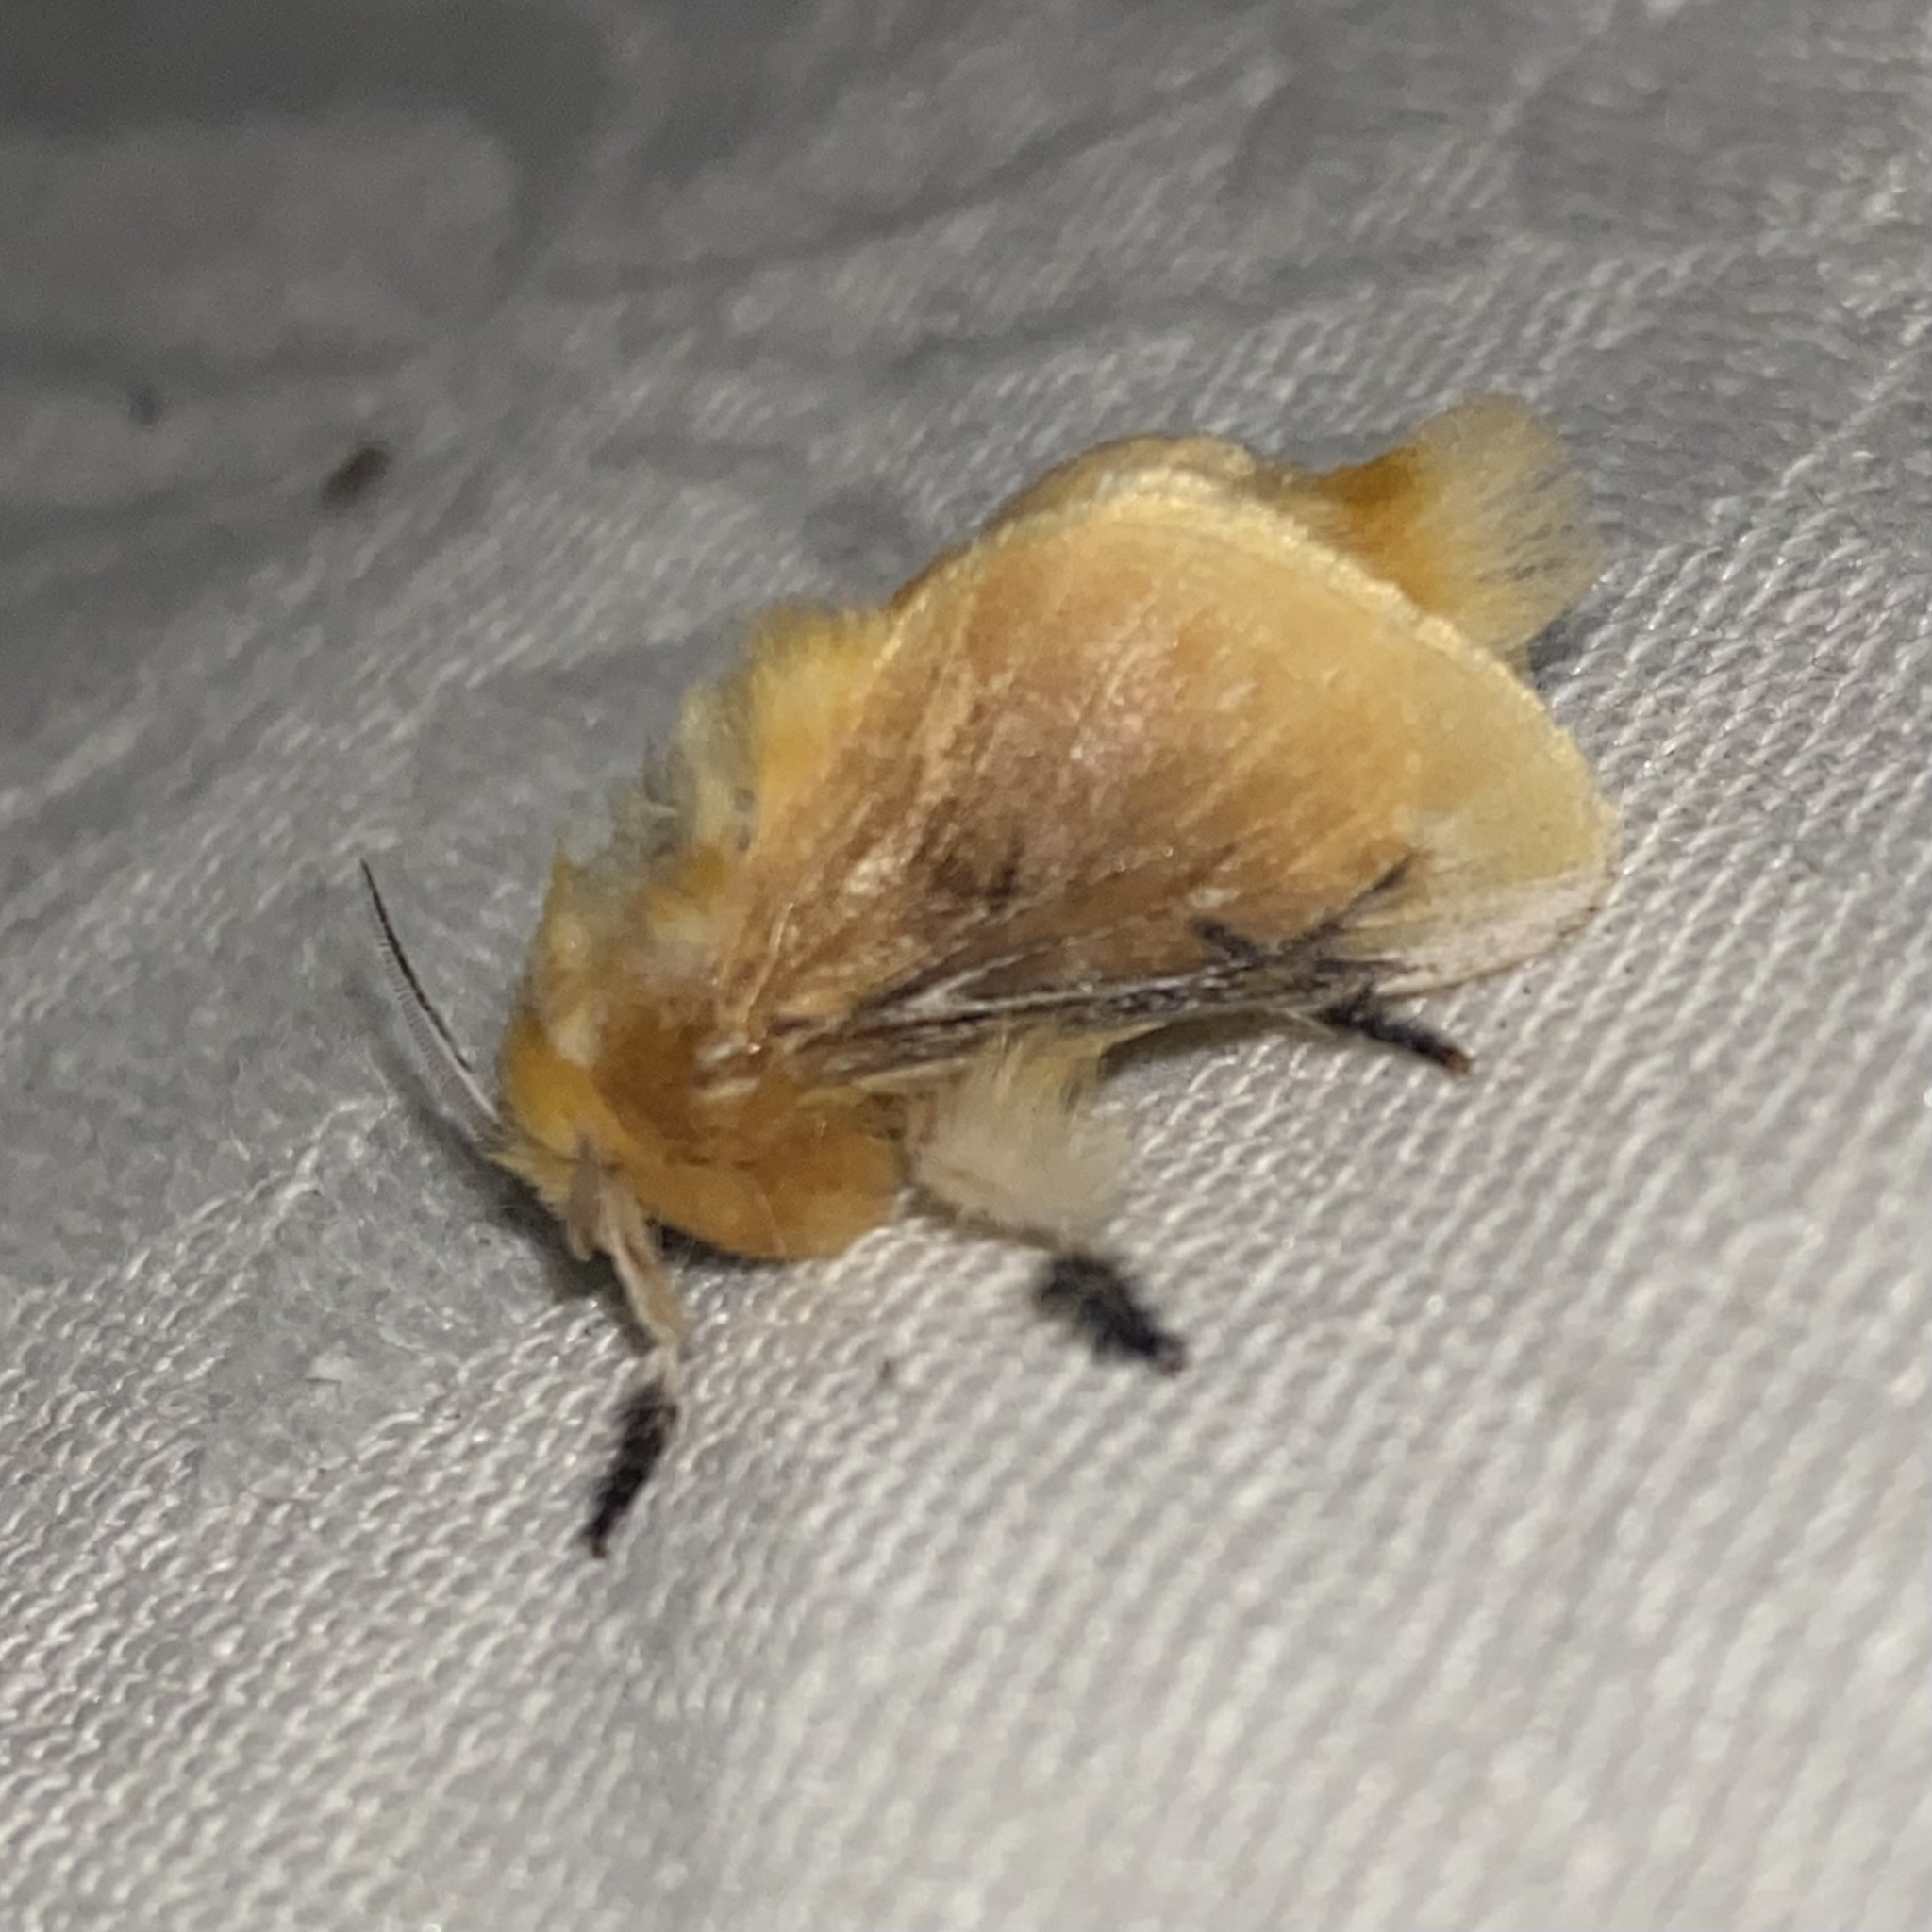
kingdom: Animalia
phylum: Arthropoda
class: Insecta
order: Lepidoptera
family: Megalopygidae
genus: Megalopyge
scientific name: Megalopyge opercularis
